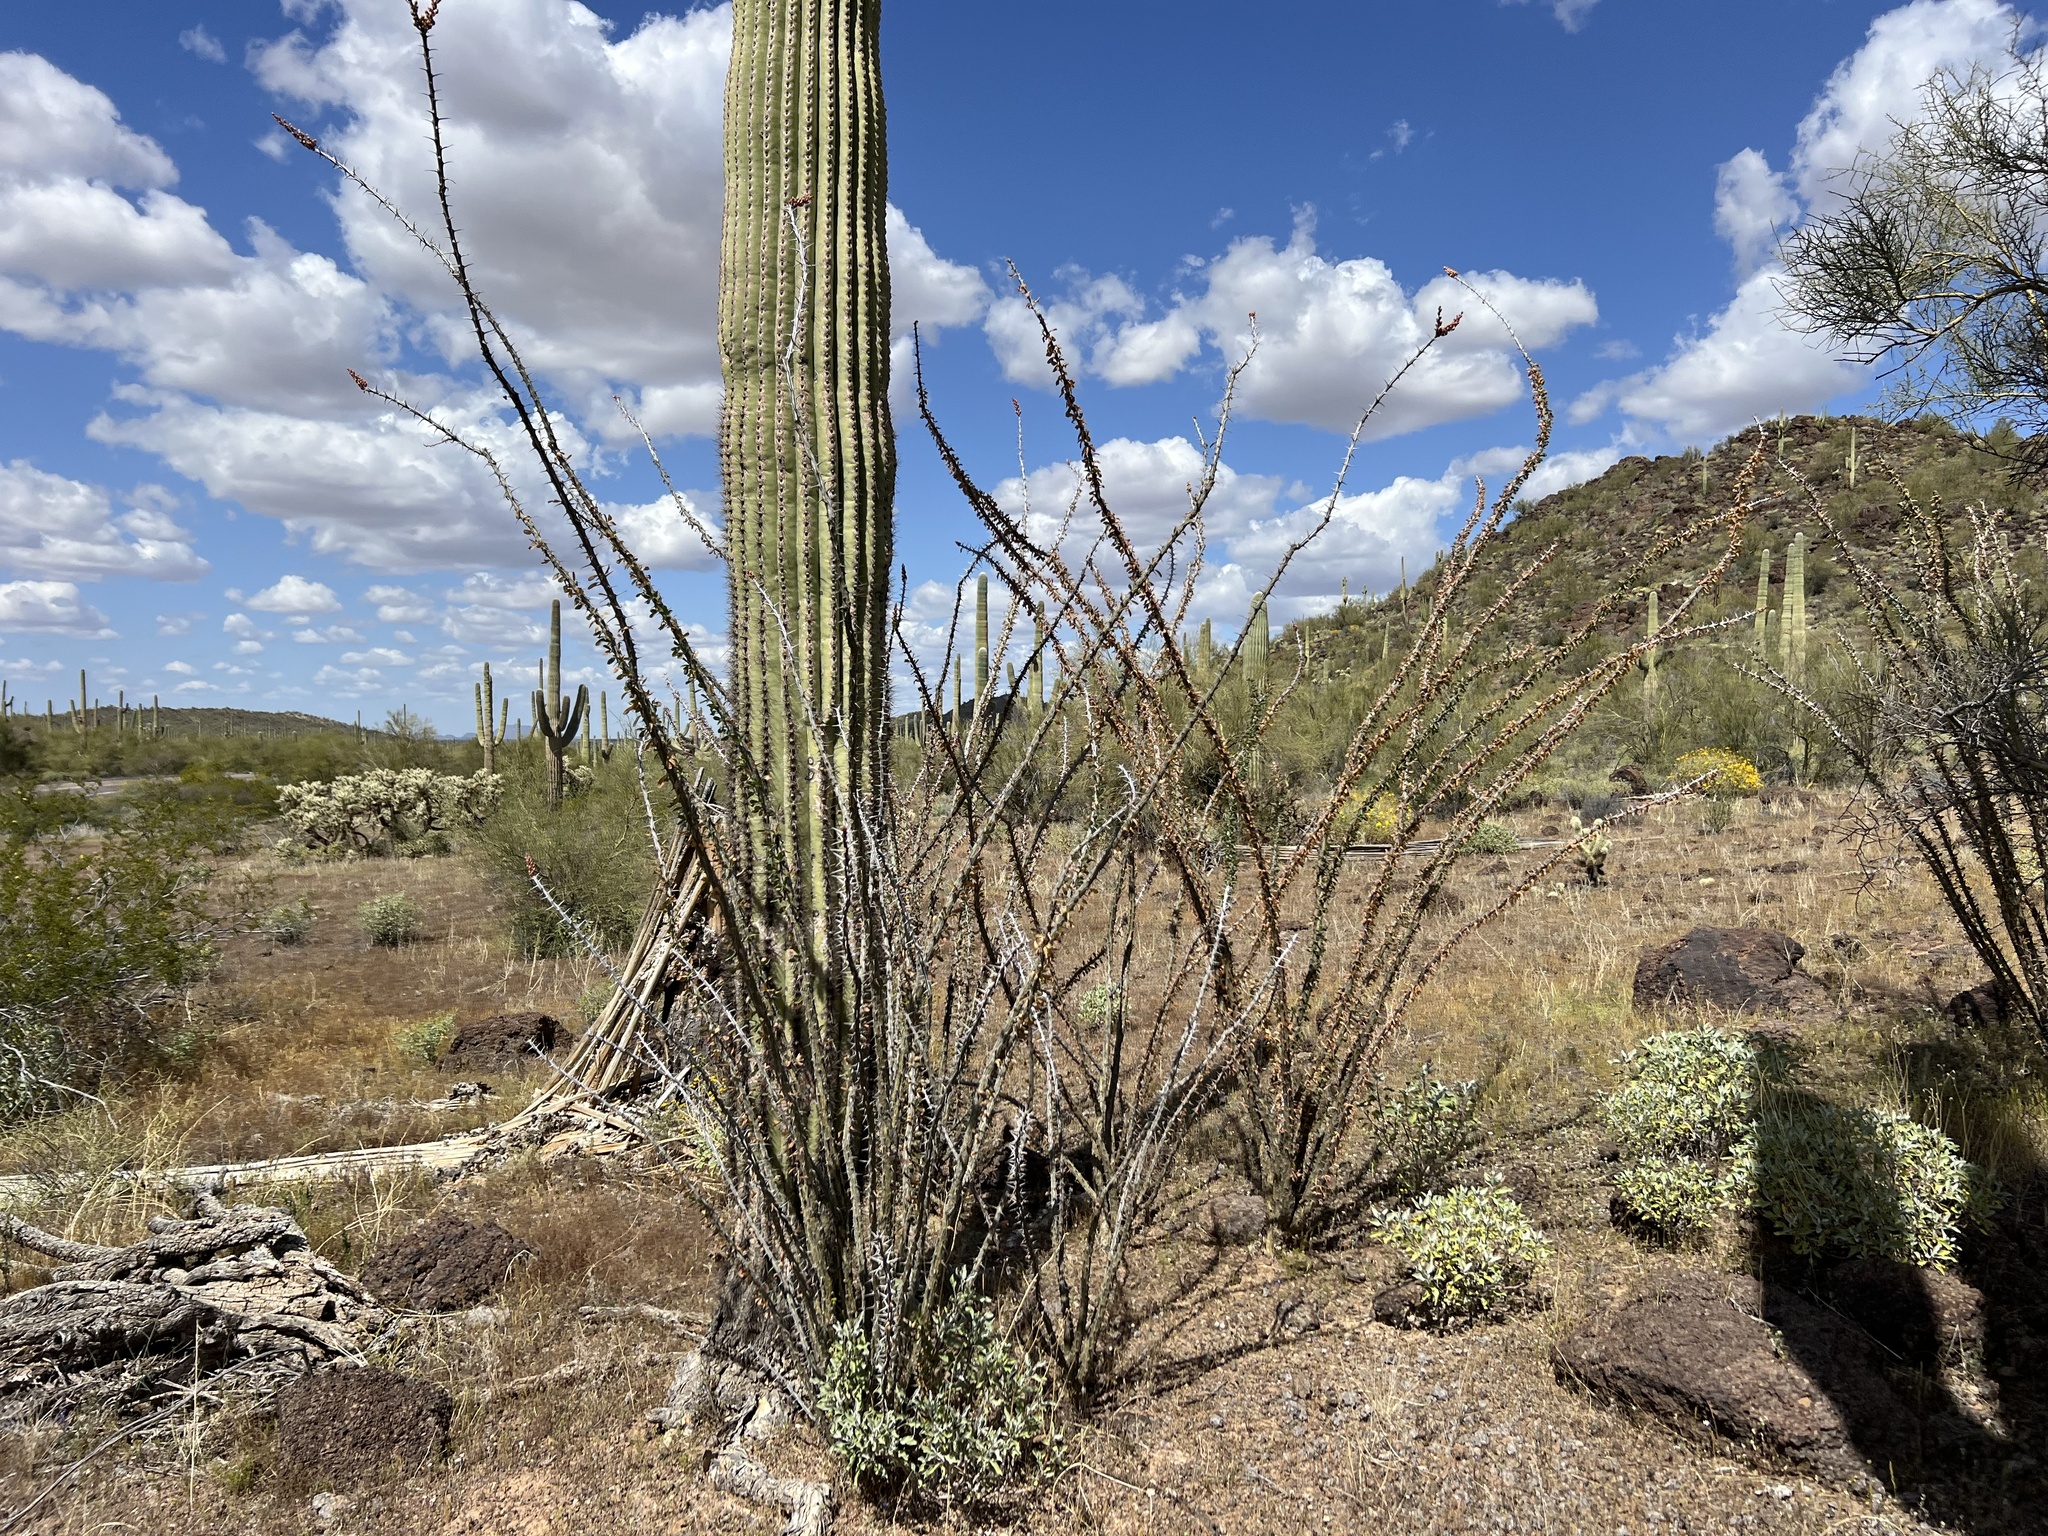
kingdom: Plantae
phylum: Tracheophyta
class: Magnoliopsida
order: Ericales
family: Fouquieriaceae
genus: Fouquieria
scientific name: Fouquieria splendens
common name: Vine-cactus
